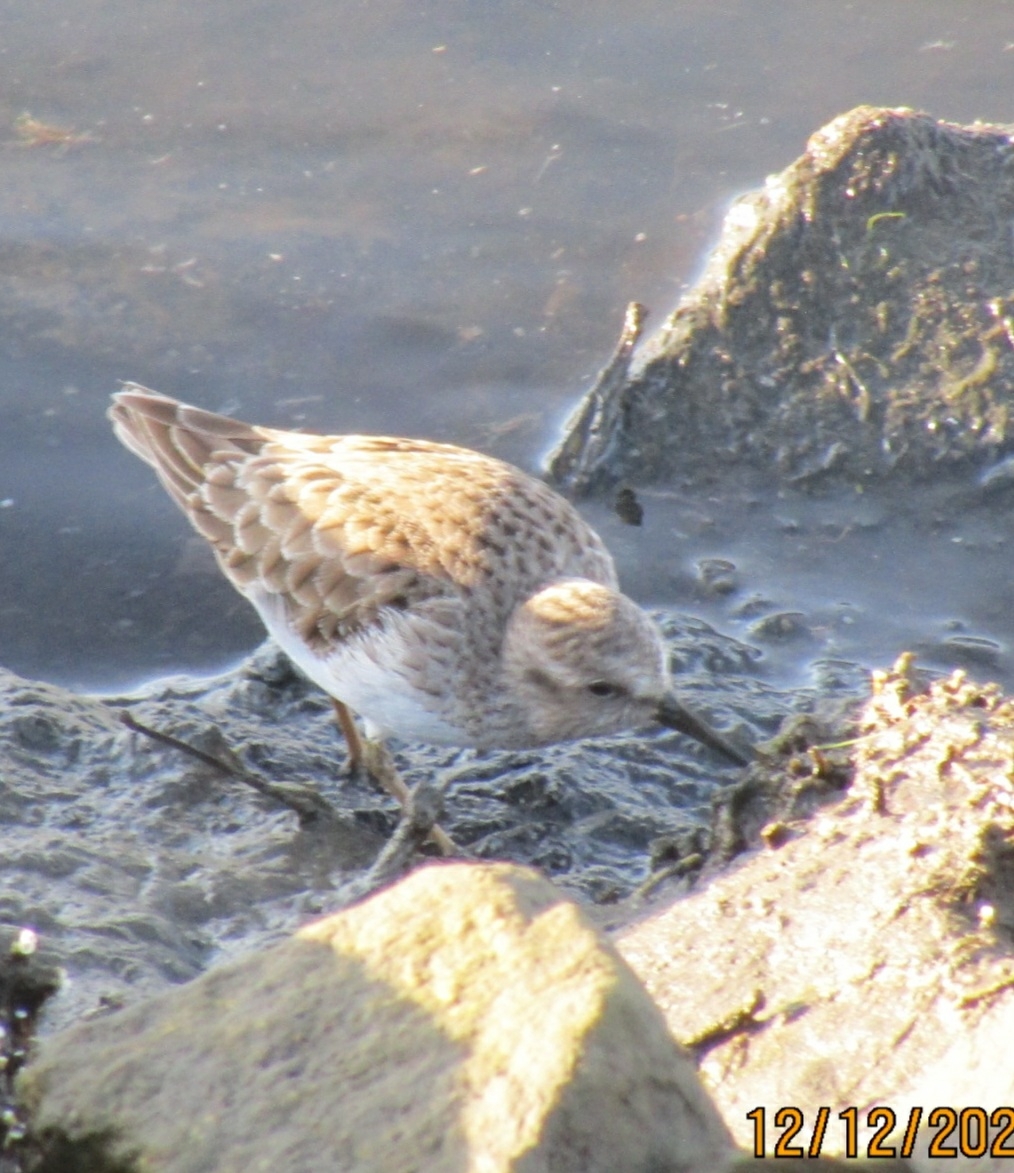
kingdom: Animalia
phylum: Chordata
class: Aves
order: Charadriiformes
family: Scolopacidae
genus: Calidris
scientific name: Calidris minutilla
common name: Least sandpiper
